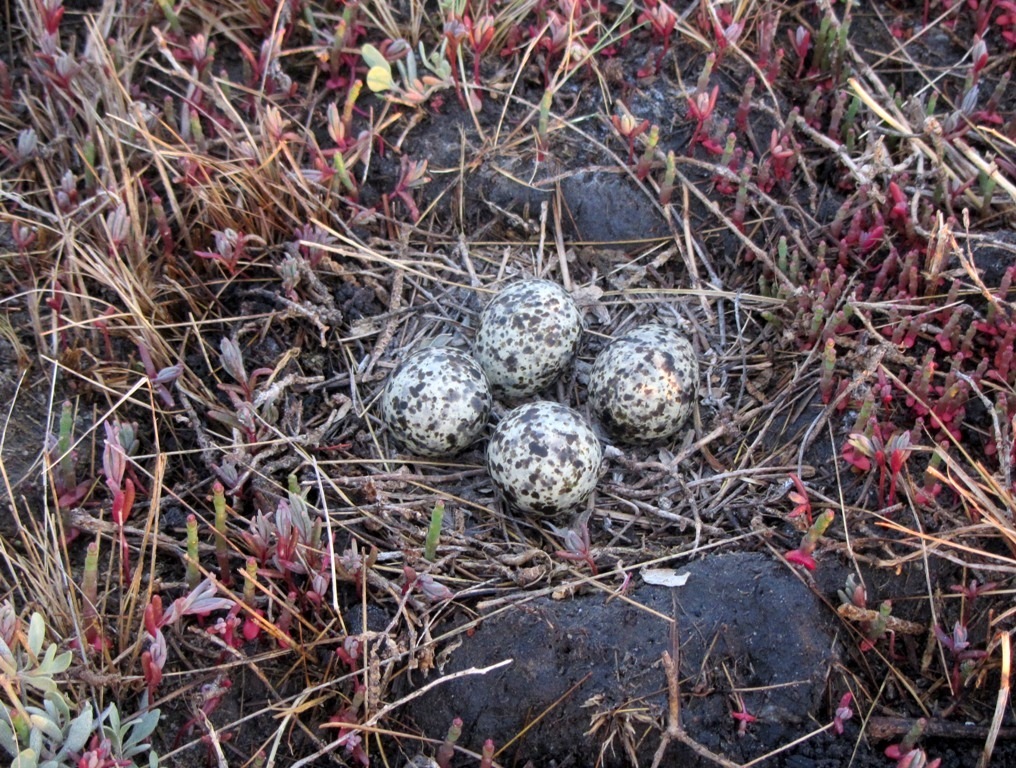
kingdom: Animalia
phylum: Chordata
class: Aves
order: Charadriiformes
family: Glareolidae
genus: Glareola
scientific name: Glareola nordmanni
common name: Black-winged pratincole
